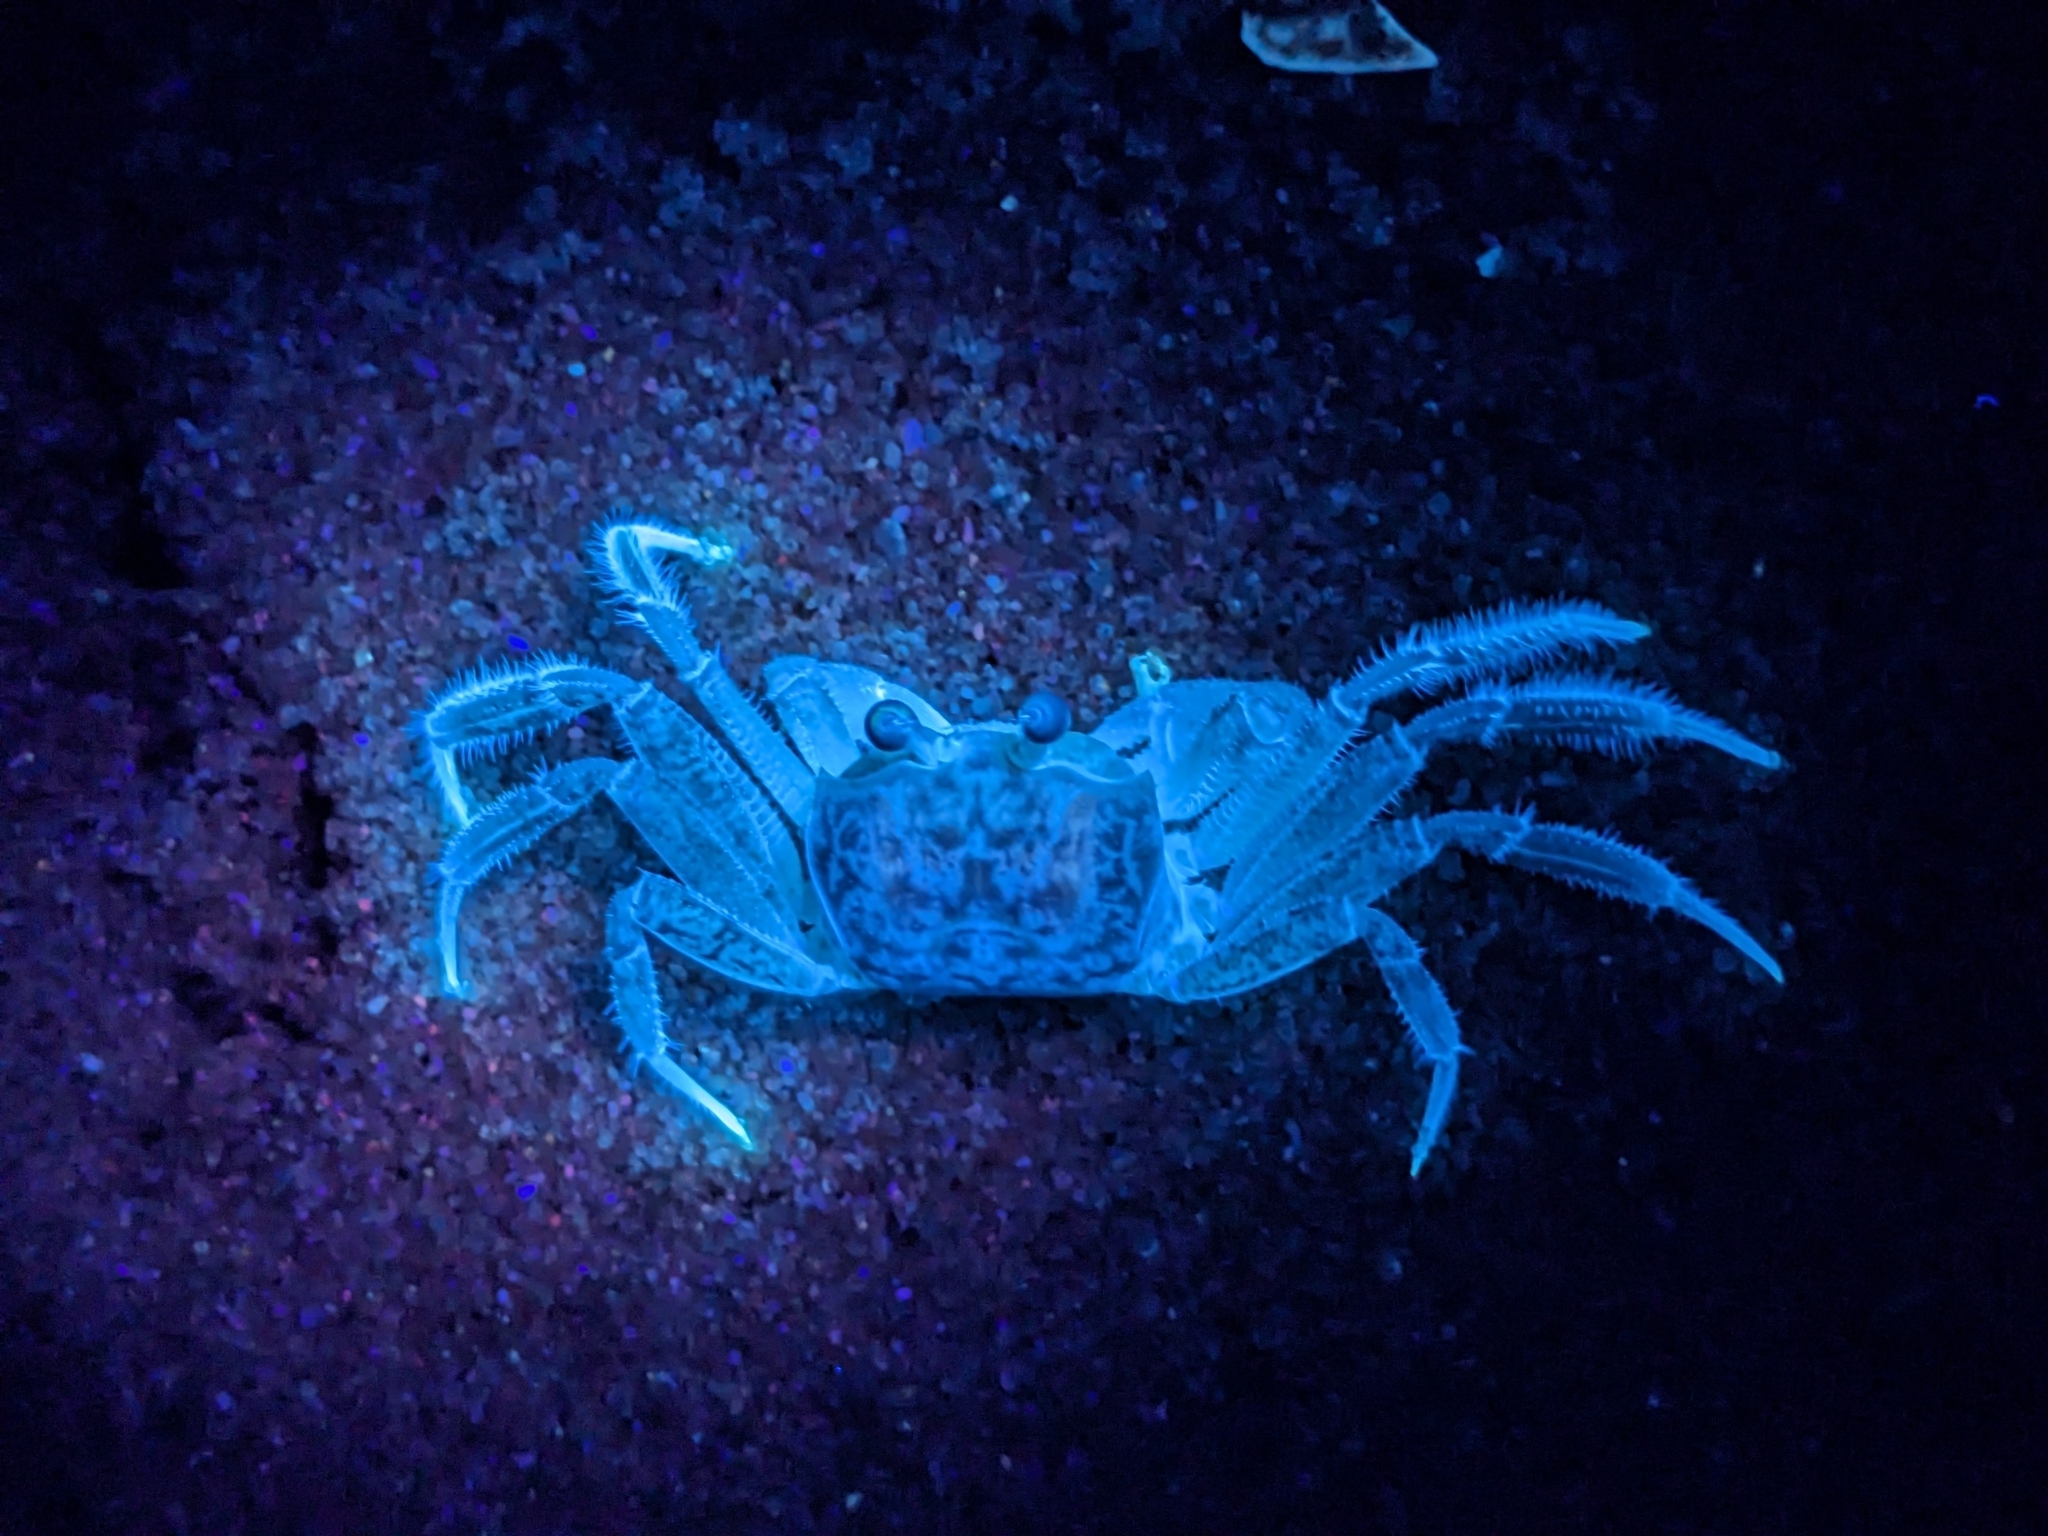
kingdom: Animalia
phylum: Arthropoda
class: Malacostraca
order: Decapoda
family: Ocypodidae
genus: Ocypode
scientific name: Ocypode quadrata
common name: Ghost crab
